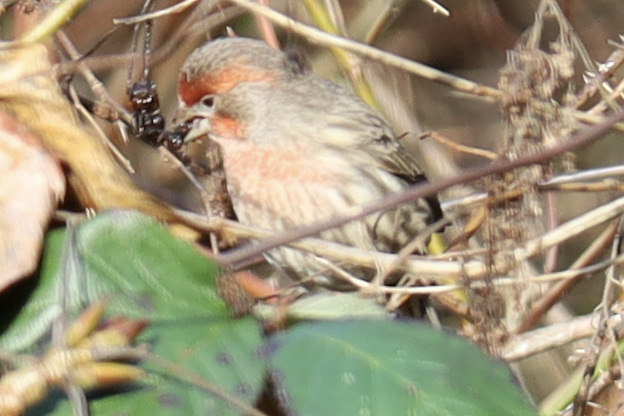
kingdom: Animalia
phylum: Chordata
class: Aves
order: Passeriformes
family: Fringillidae
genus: Haemorhous
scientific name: Haemorhous mexicanus
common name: House finch
